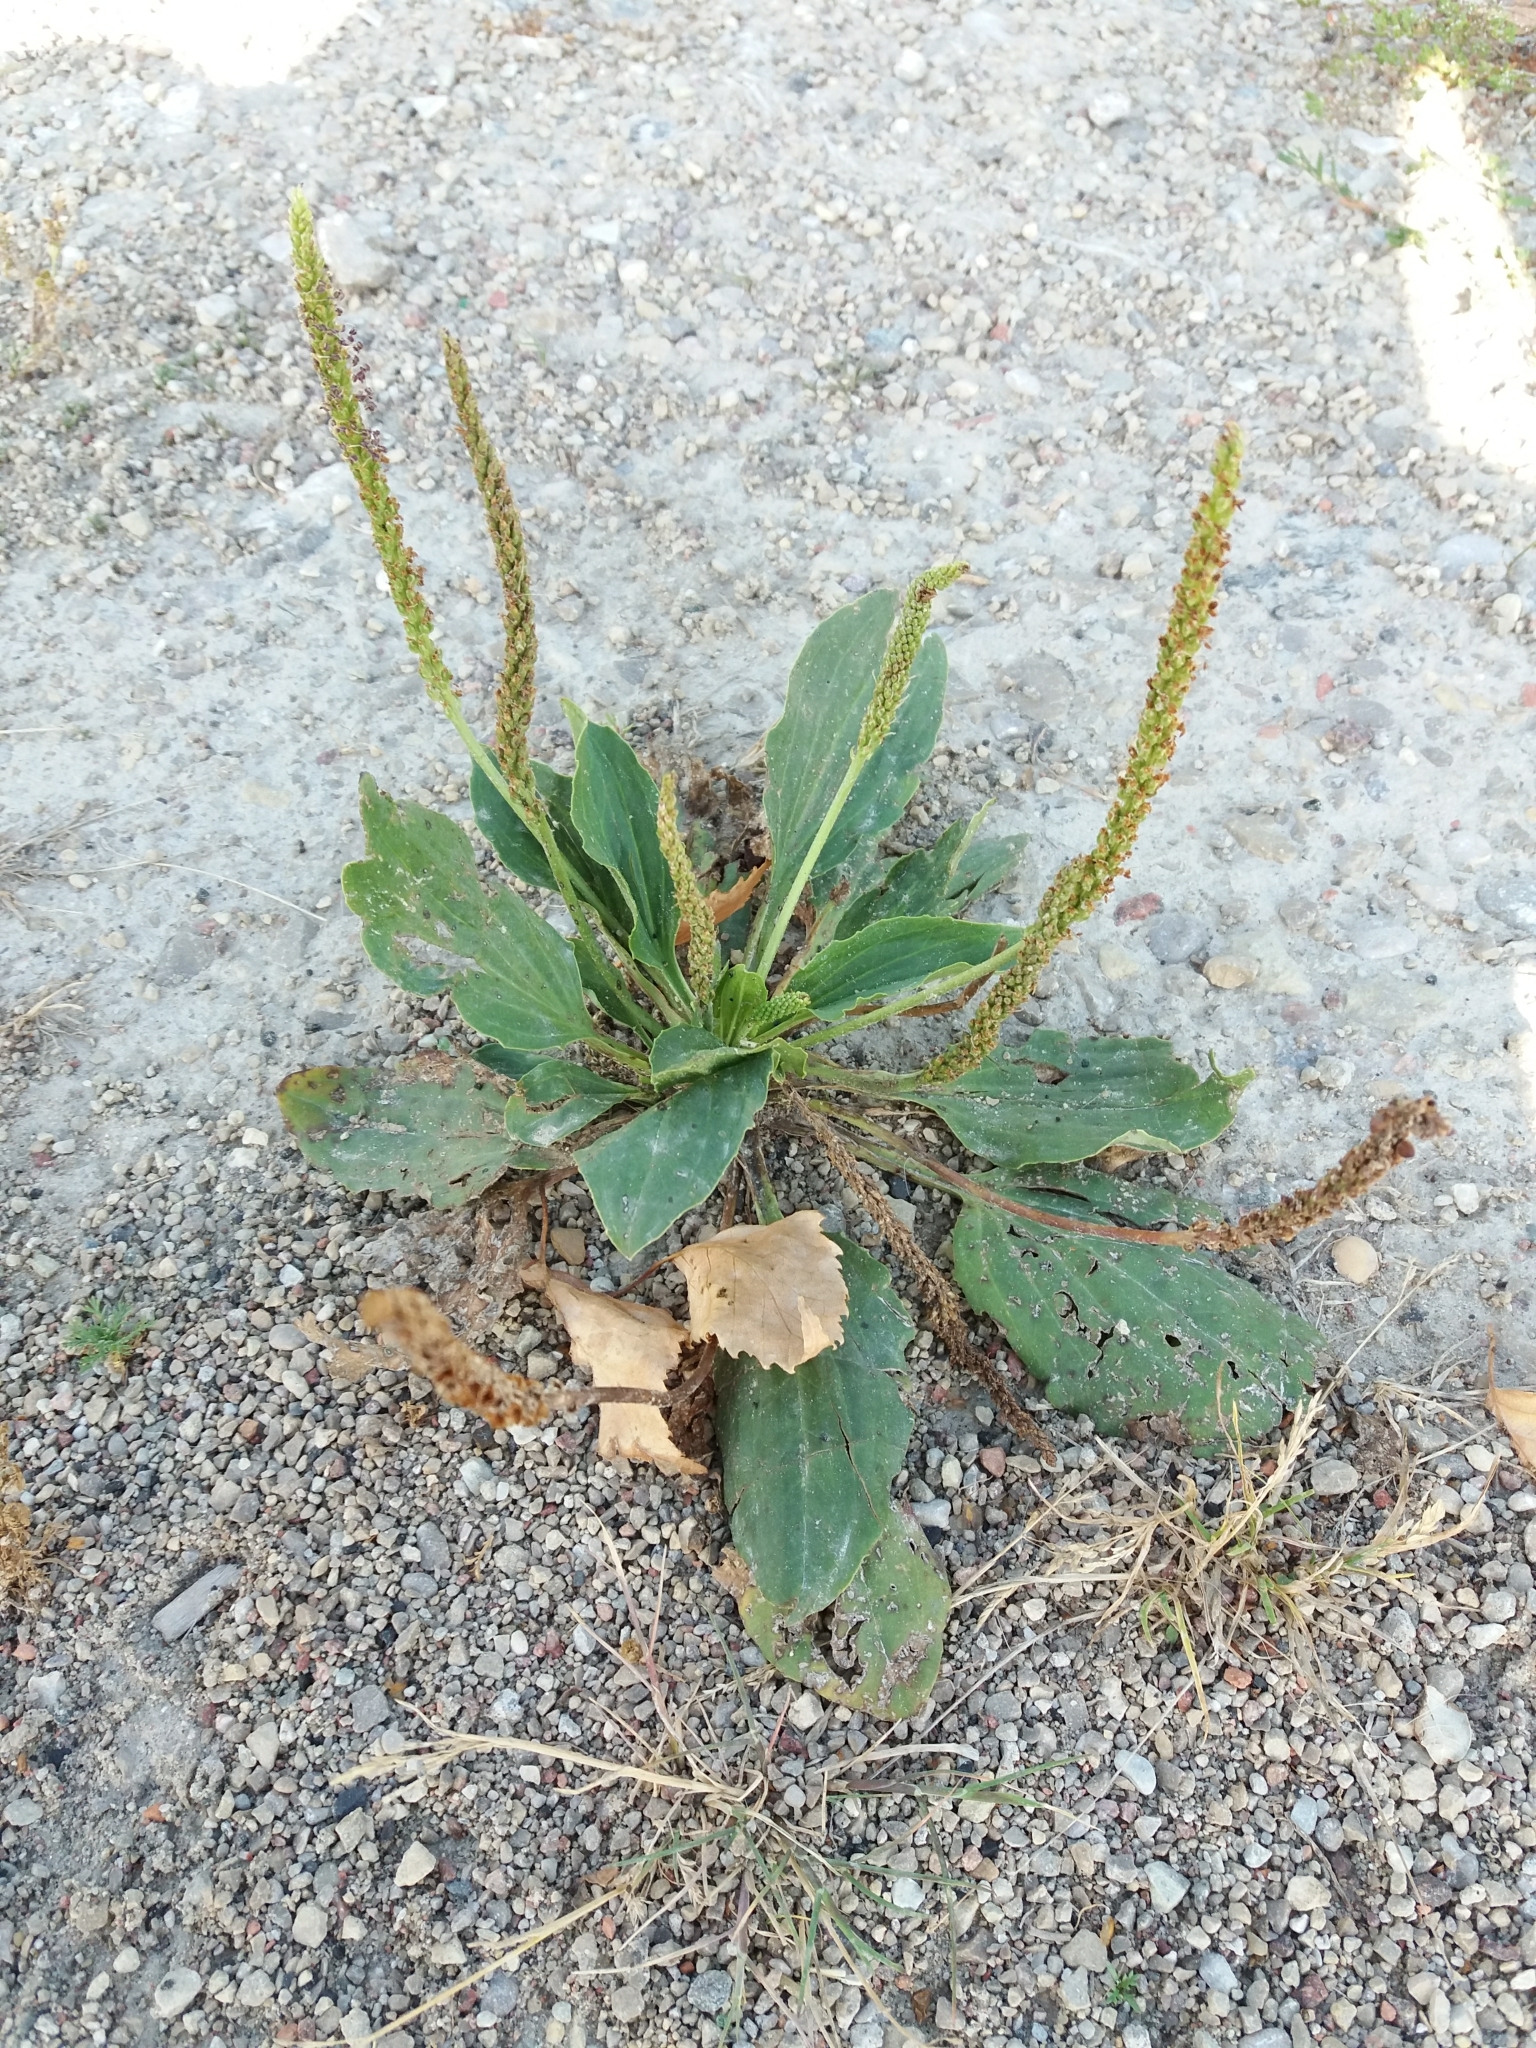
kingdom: Plantae
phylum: Tracheophyta
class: Magnoliopsida
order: Lamiales
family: Plantaginaceae
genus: Plantago
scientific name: Plantago major
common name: Common plantain
